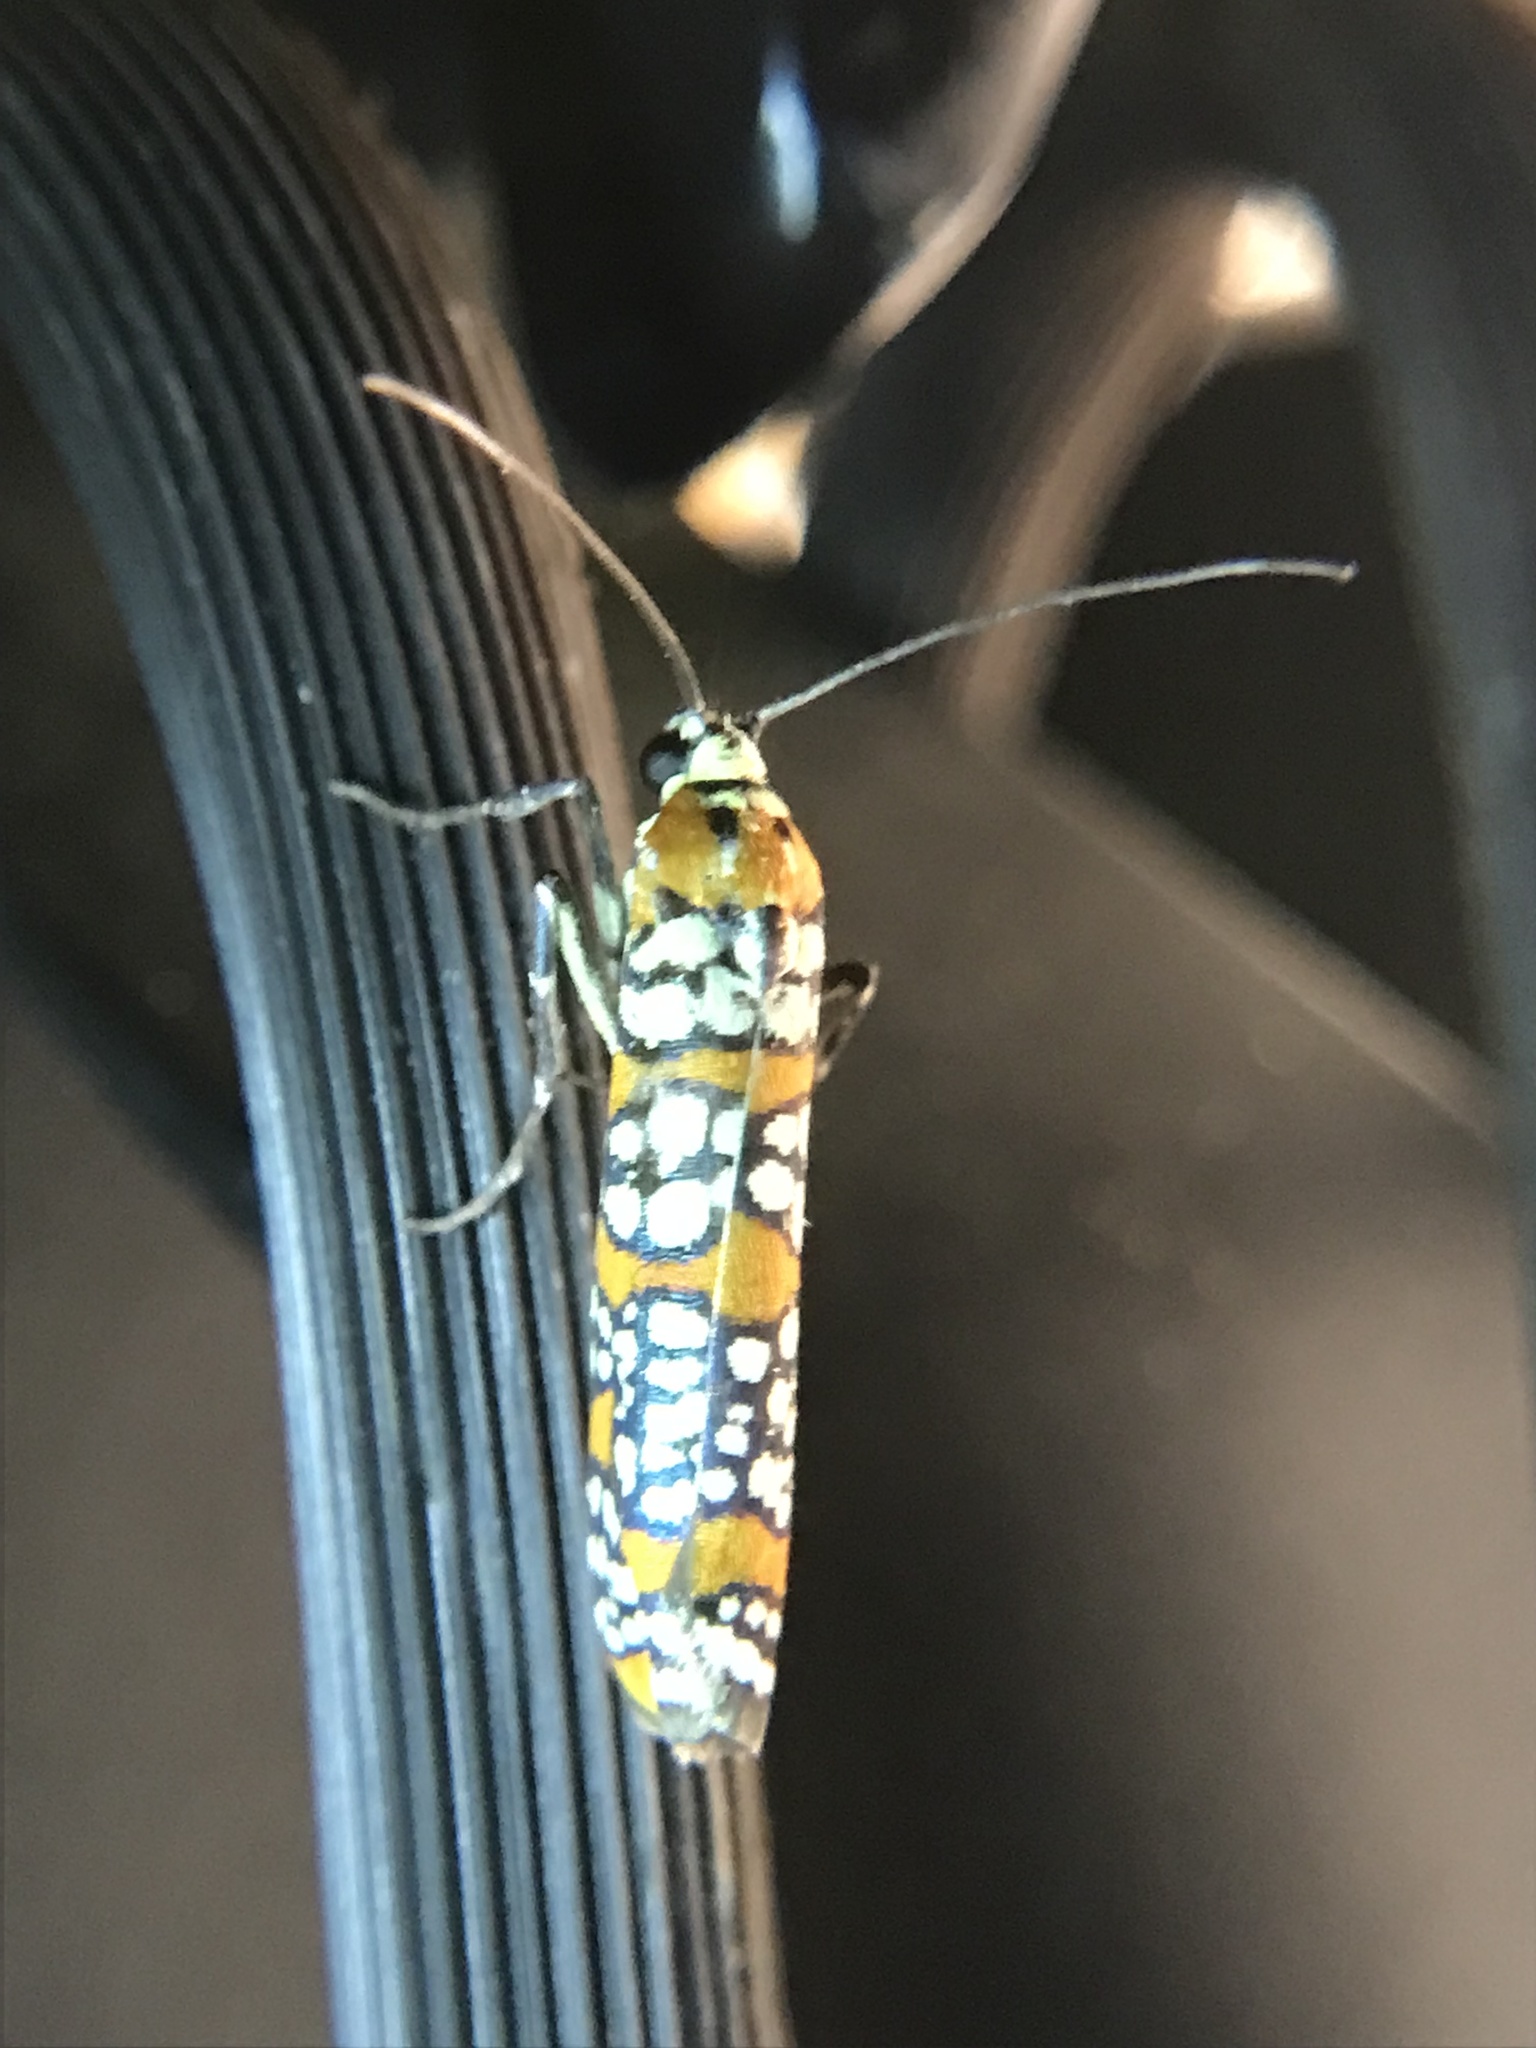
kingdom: Animalia
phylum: Arthropoda
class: Insecta
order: Lepidoptera
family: Attevidae
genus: Atteva
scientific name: Atteva punctella
